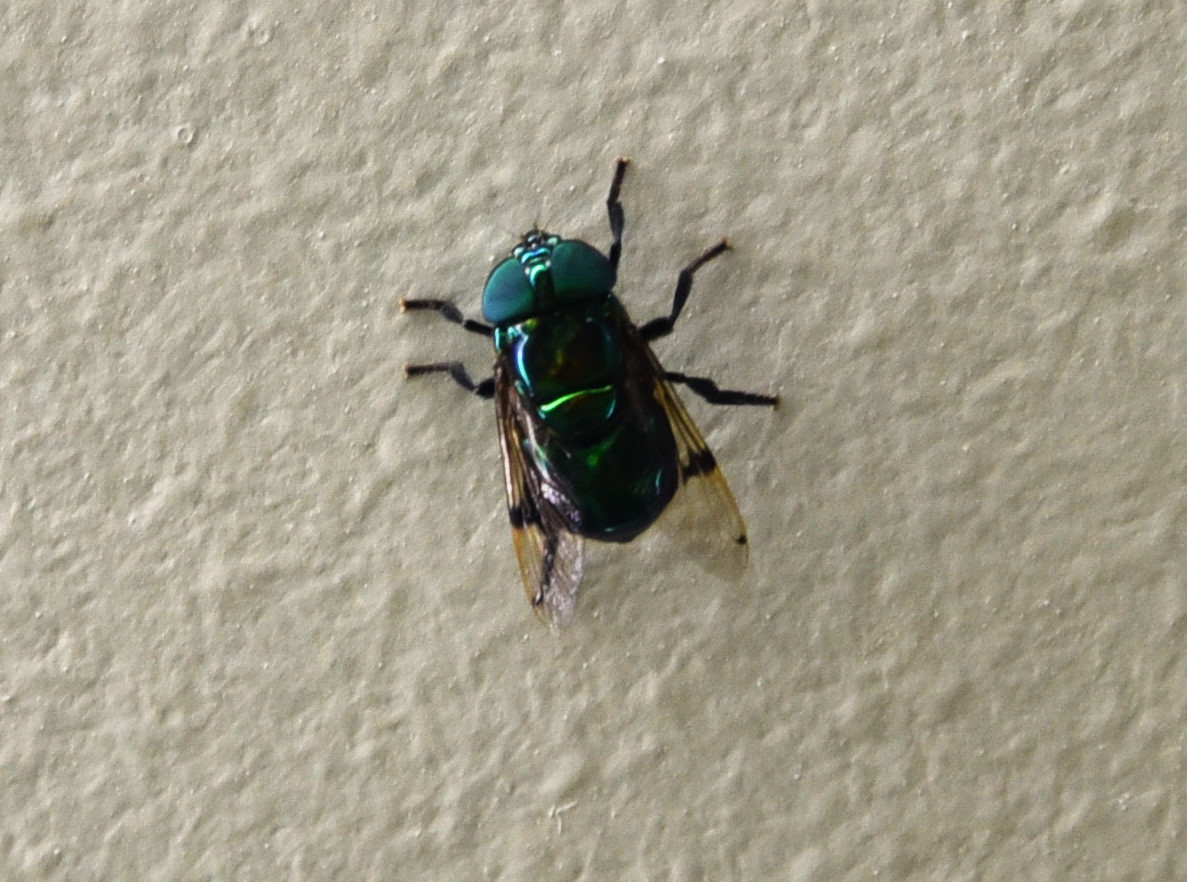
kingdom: Animalia
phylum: Arthropoda
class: Insecta
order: Diptera
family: Syrphidae
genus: Ornidia
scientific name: Ornidia obesa
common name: Syrphid fly
